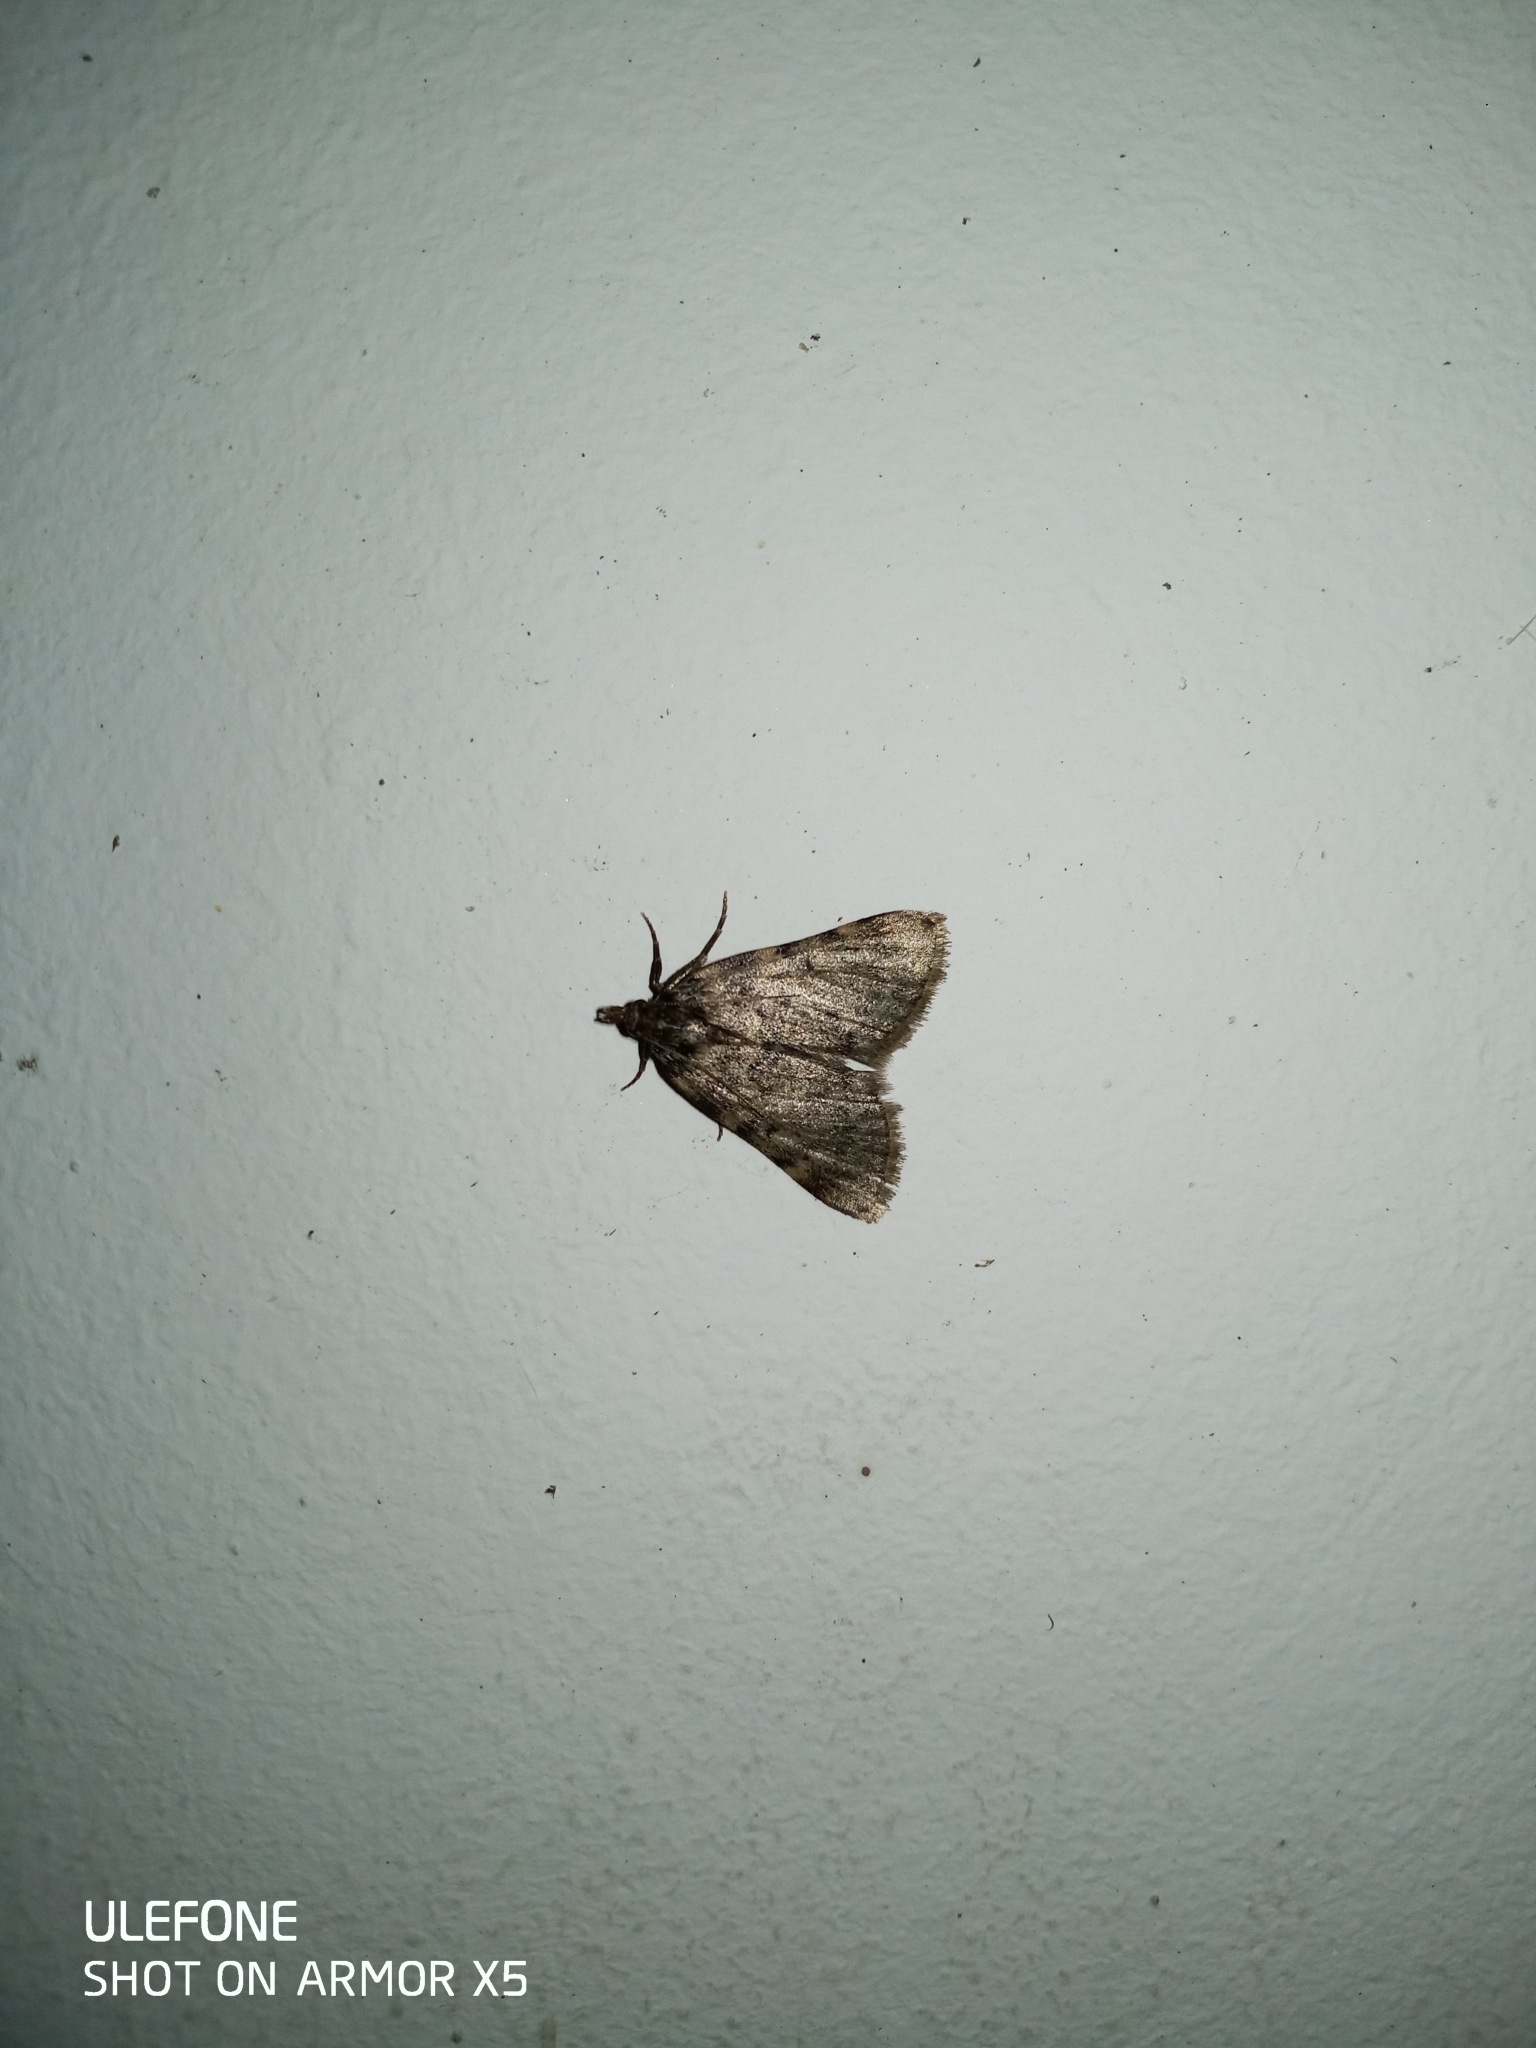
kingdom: Animalia
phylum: Arthropoda
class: Insecta
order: Lepidoptera
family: Pyralidae
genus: Aglossa
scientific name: Aglossa pinguinalis
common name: Large tabby
